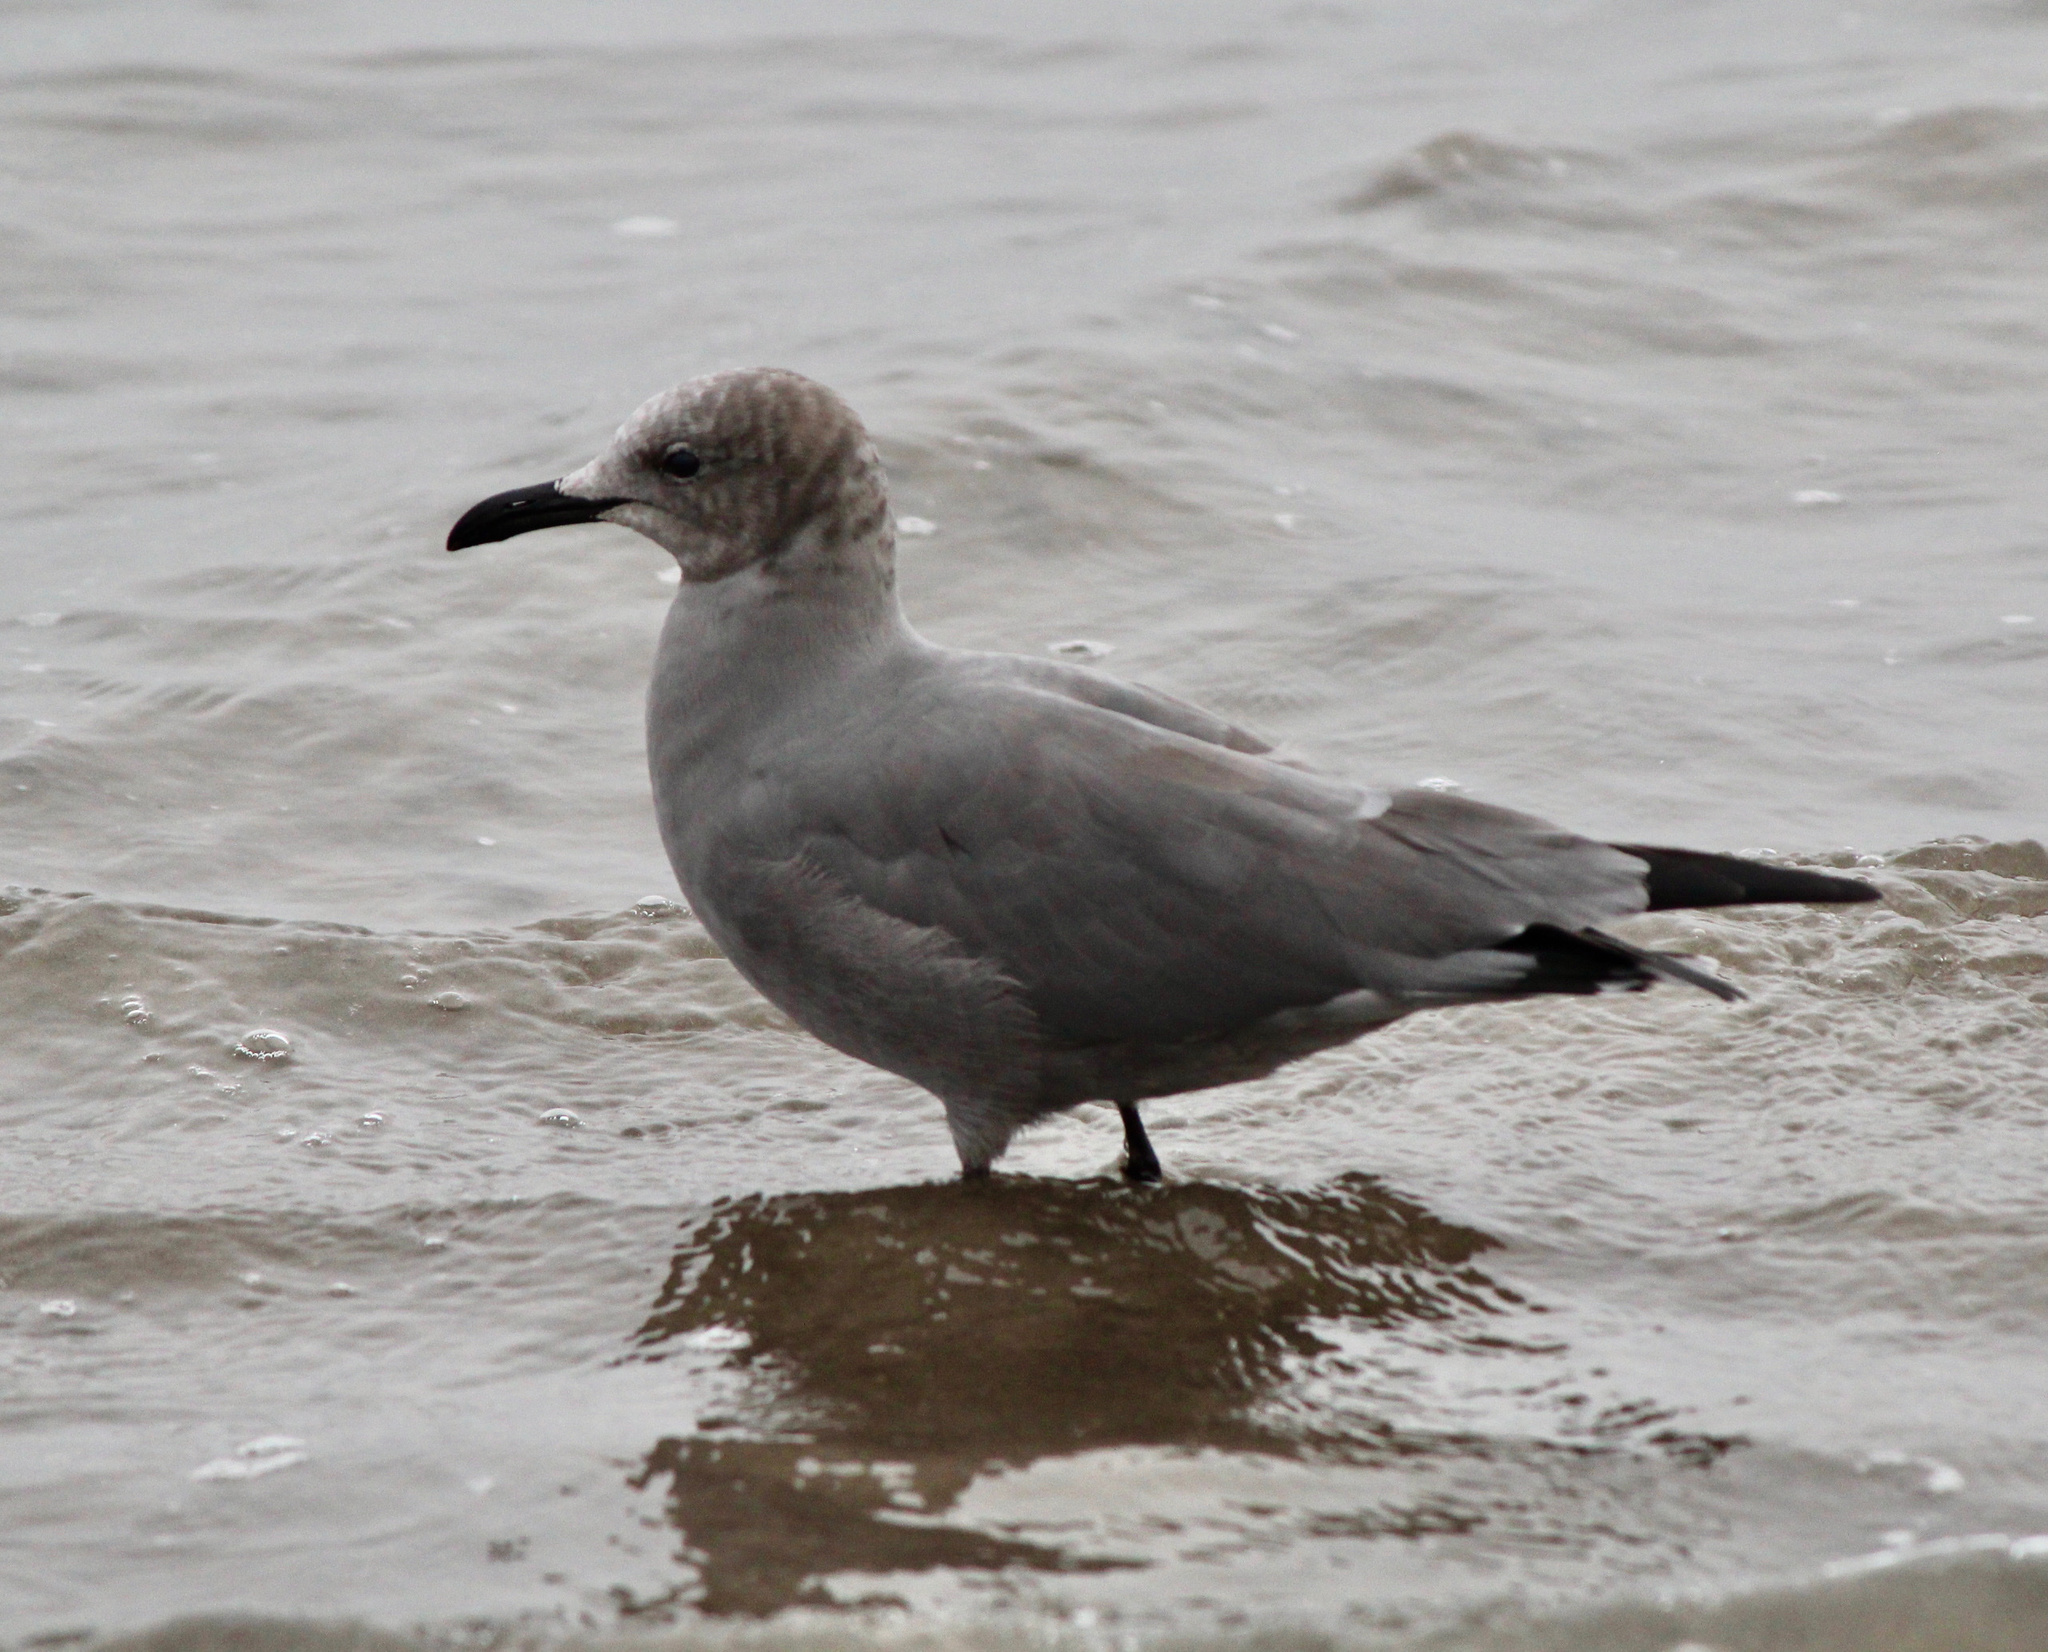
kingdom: Animalia
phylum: Chordata
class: Aves
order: Charadriiformes
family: Laridae
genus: Leucophaeus
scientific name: Leucophaeus modestus
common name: Gray gull
